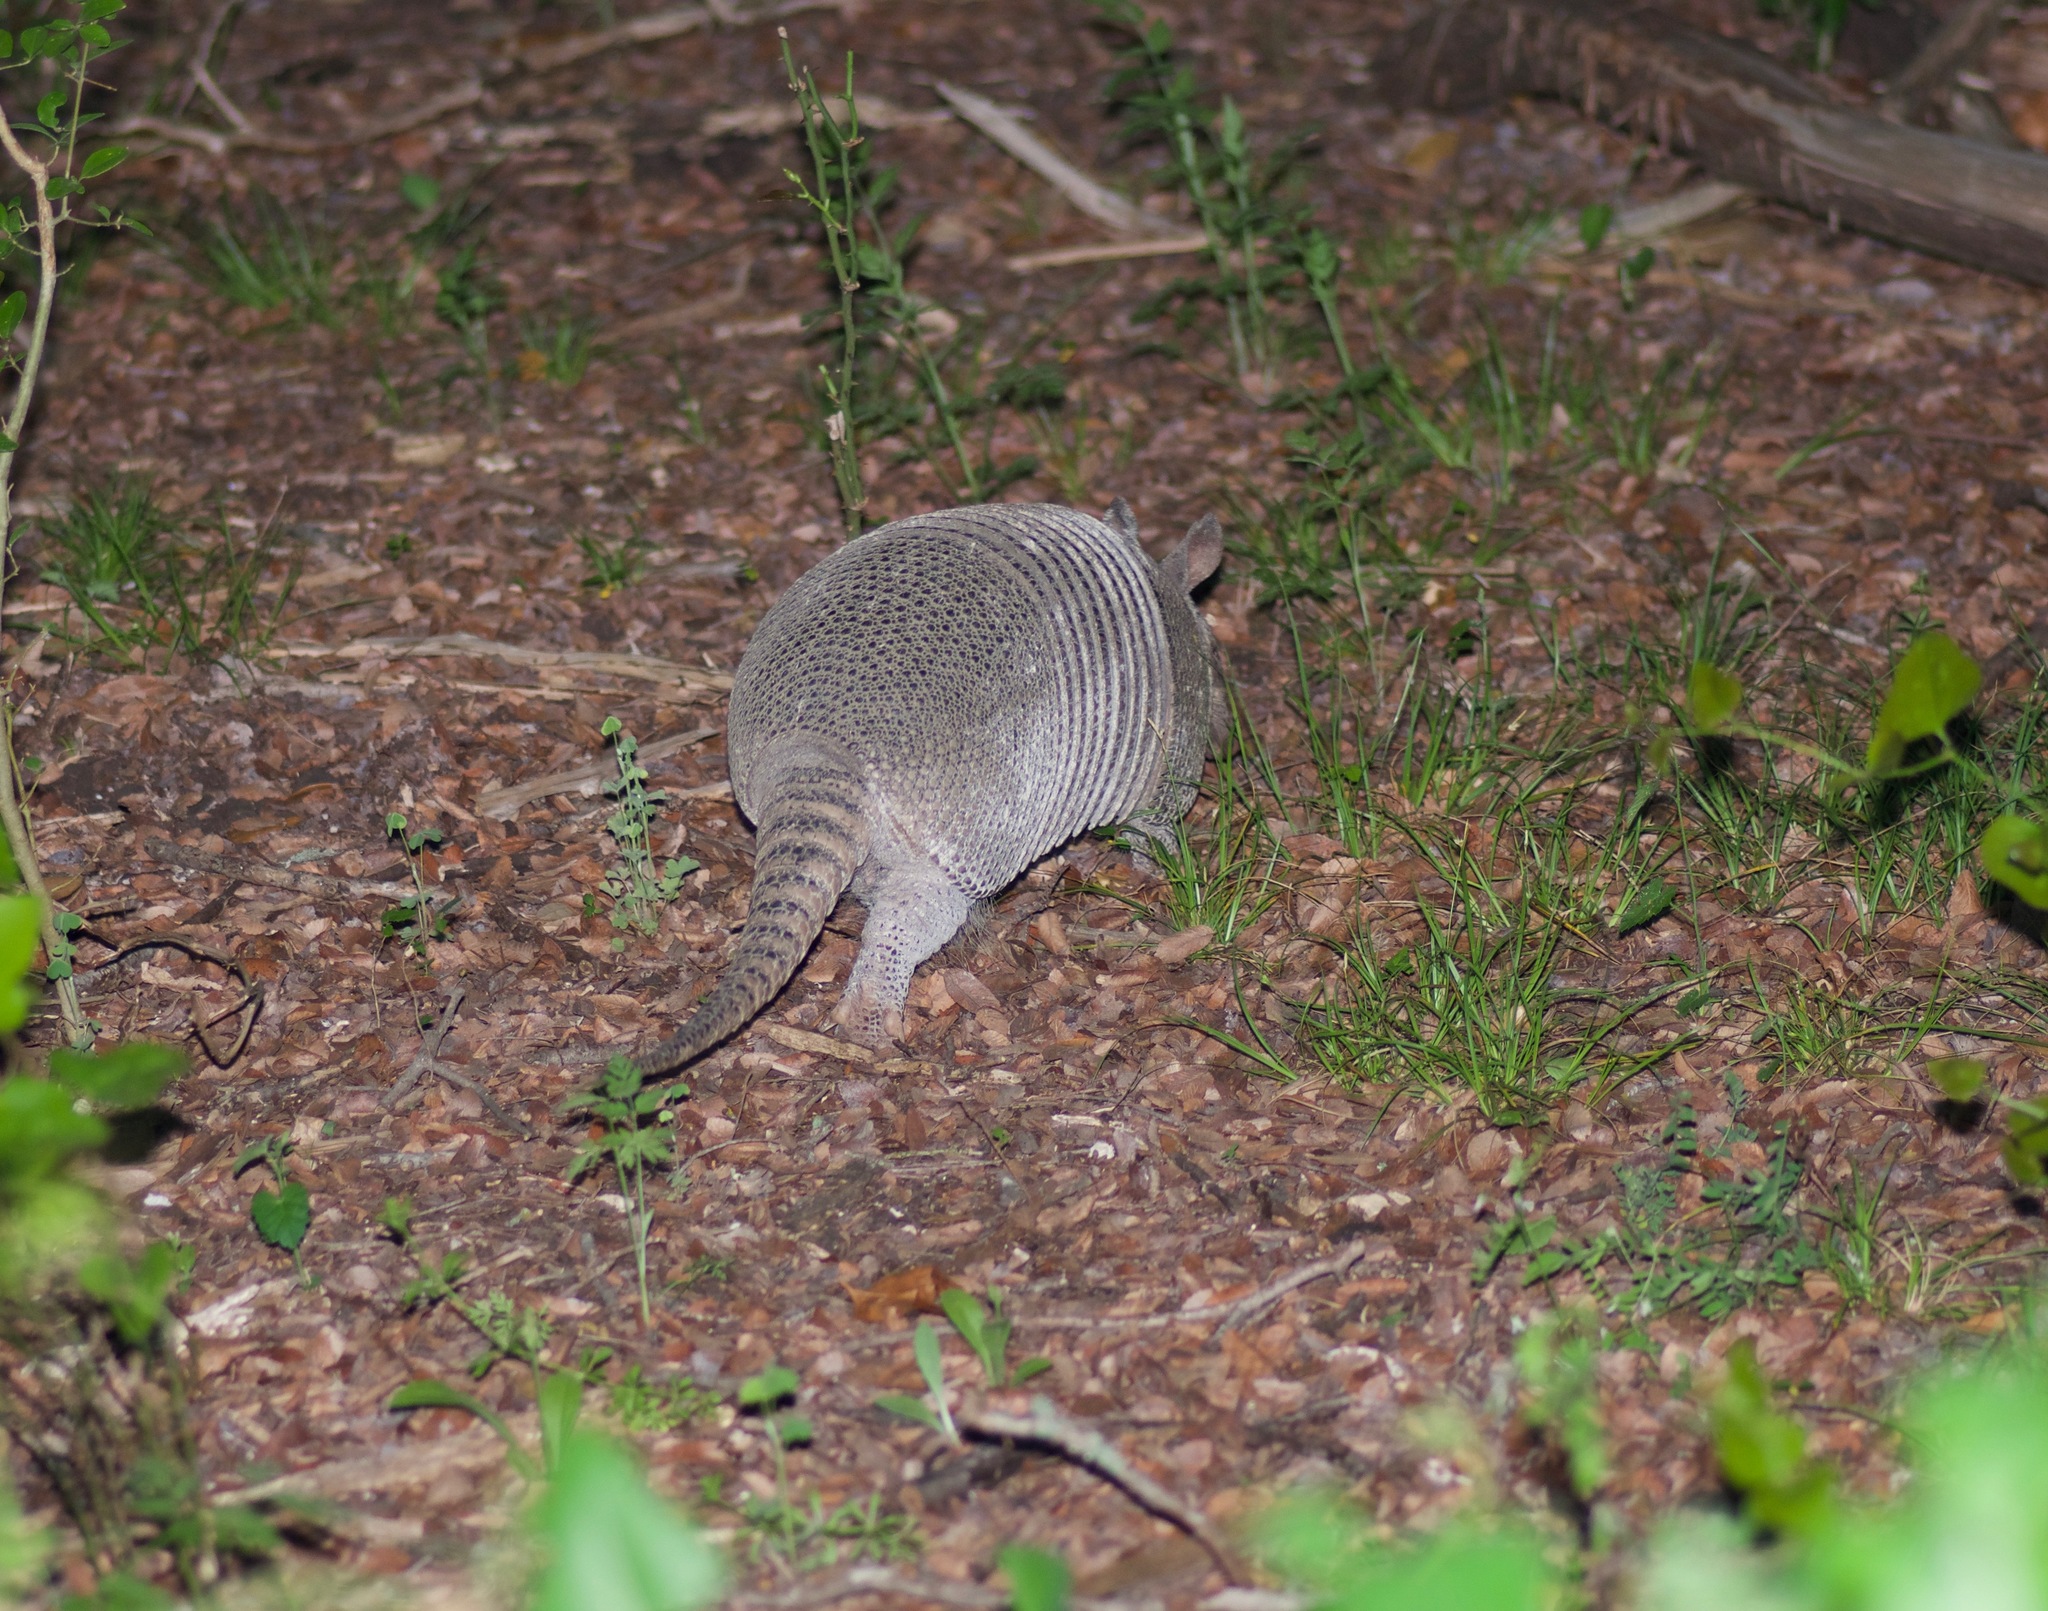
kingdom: Animalia
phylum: Chordata
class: Mammalia
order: Cingulata
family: Dasypodidae
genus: Dasypus
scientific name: Dasypus novemcinctus
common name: Nine-banded armadillo
